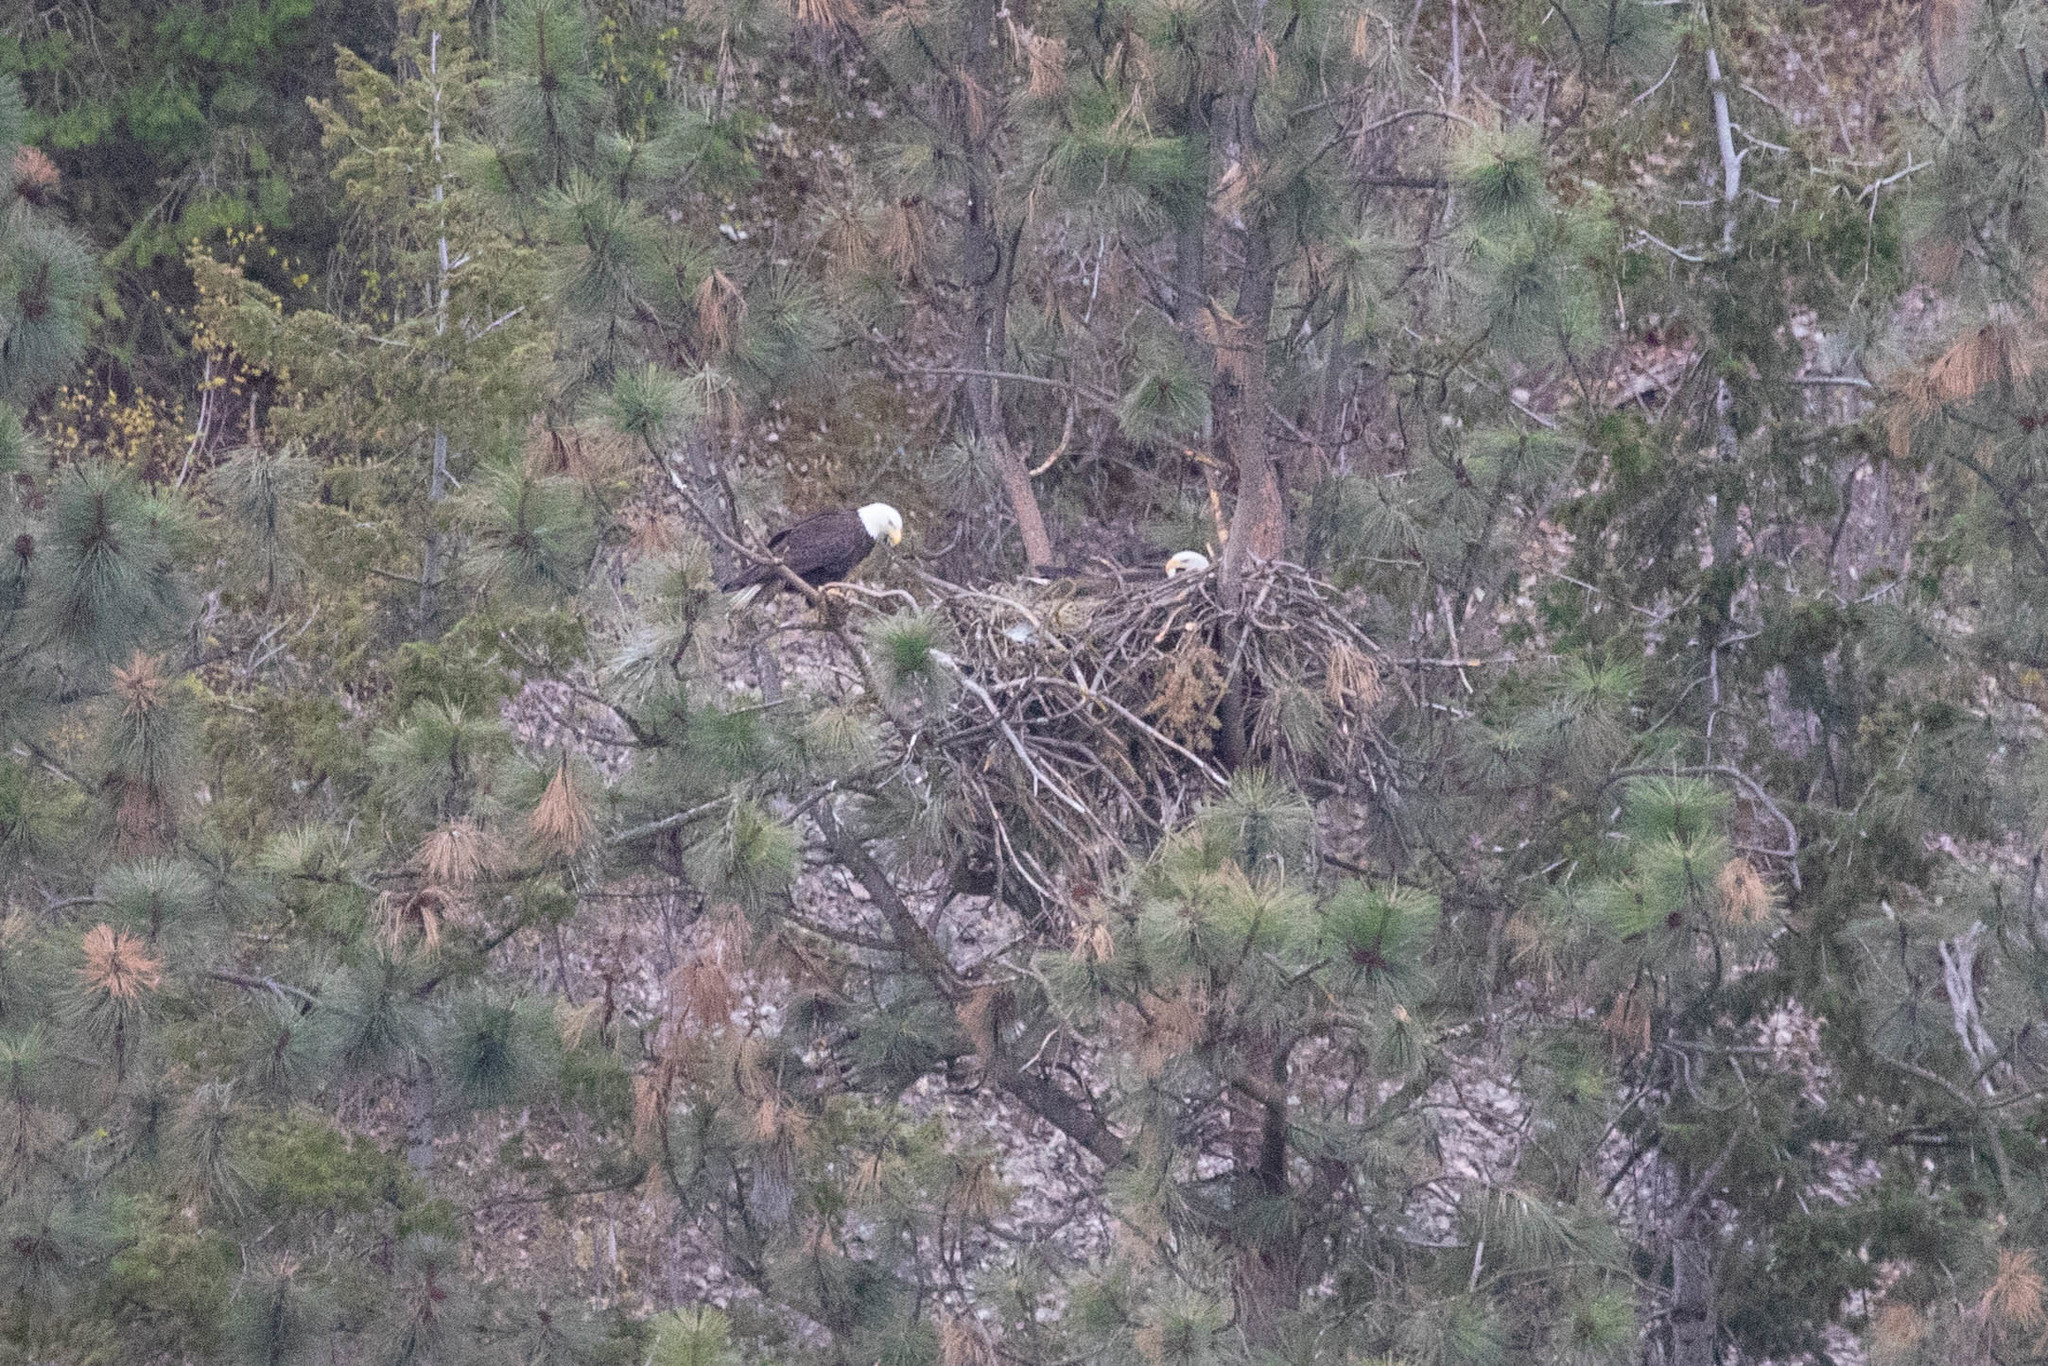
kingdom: Animalia
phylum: Chordata
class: Aves
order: Accipitriformes
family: Accipitridae
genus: Haliaeetus
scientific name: Haliaeetus leucocephalus
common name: Bald eagle
